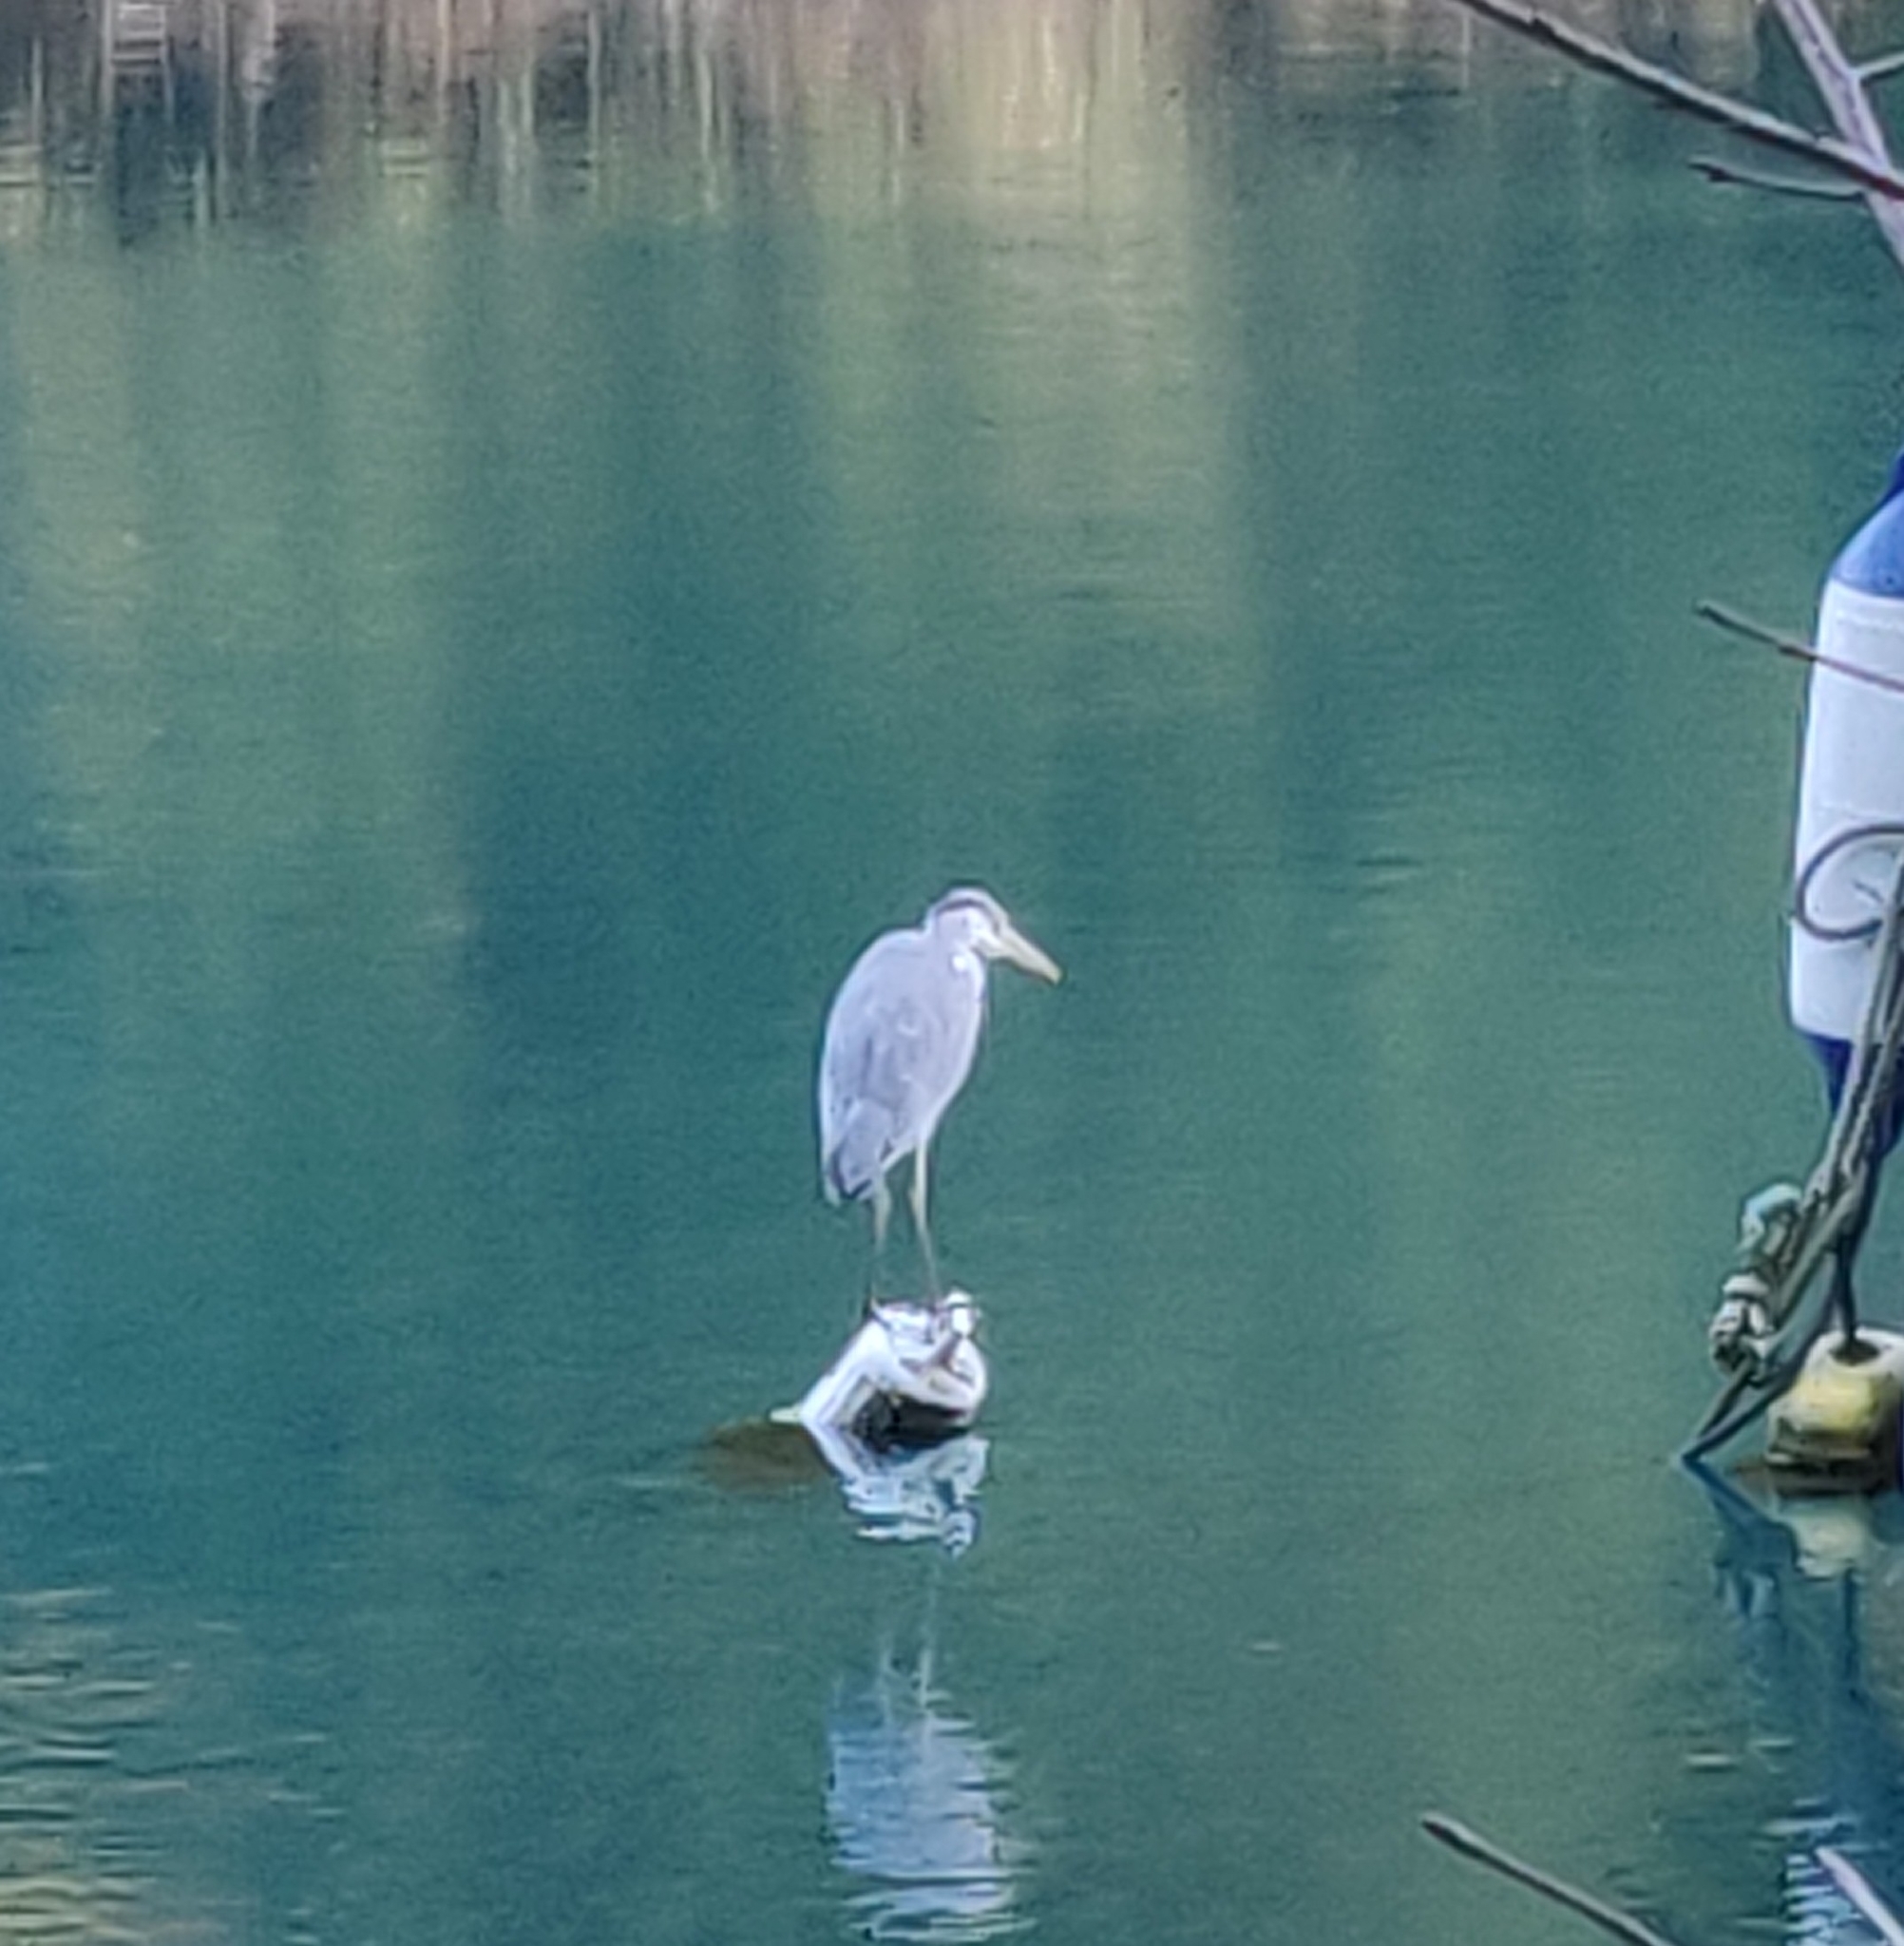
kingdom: Animalia
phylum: Chordata
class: Aves
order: Pelecaniformes
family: Ardeidae
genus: Ardea
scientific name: Ardea cinerea
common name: Grey heron
